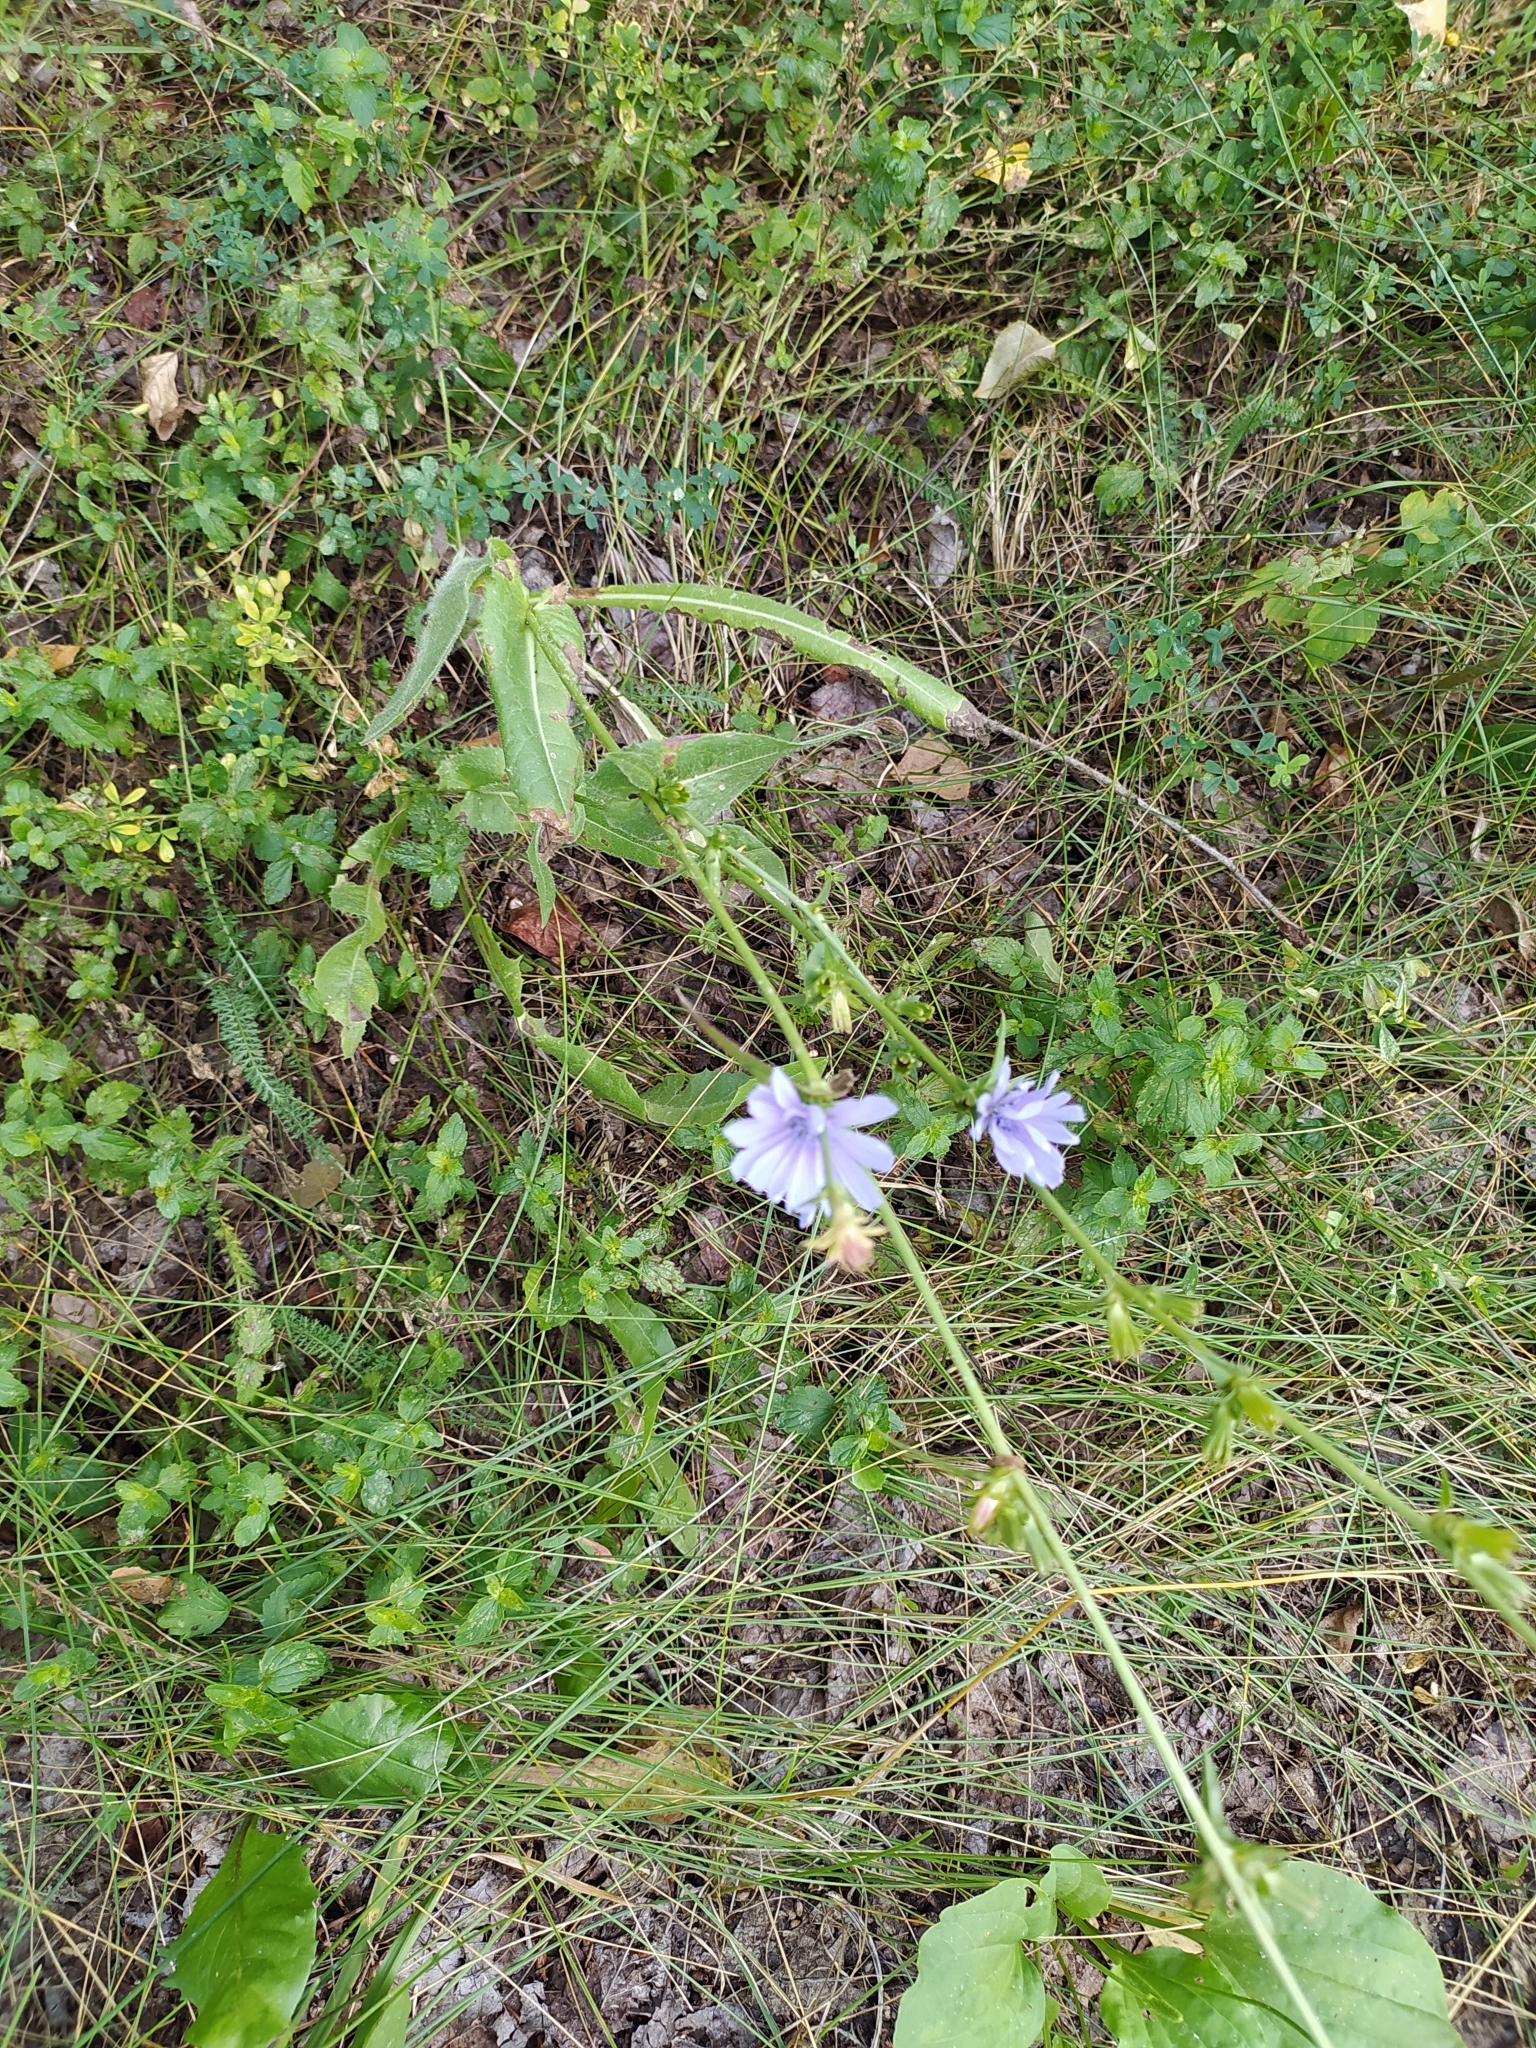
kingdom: Plantae
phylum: Tracheophyta
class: Magnoliopsida
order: Asterales
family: Asteraceae
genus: Cichorium
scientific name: Cichorium intybus
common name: Chicory
